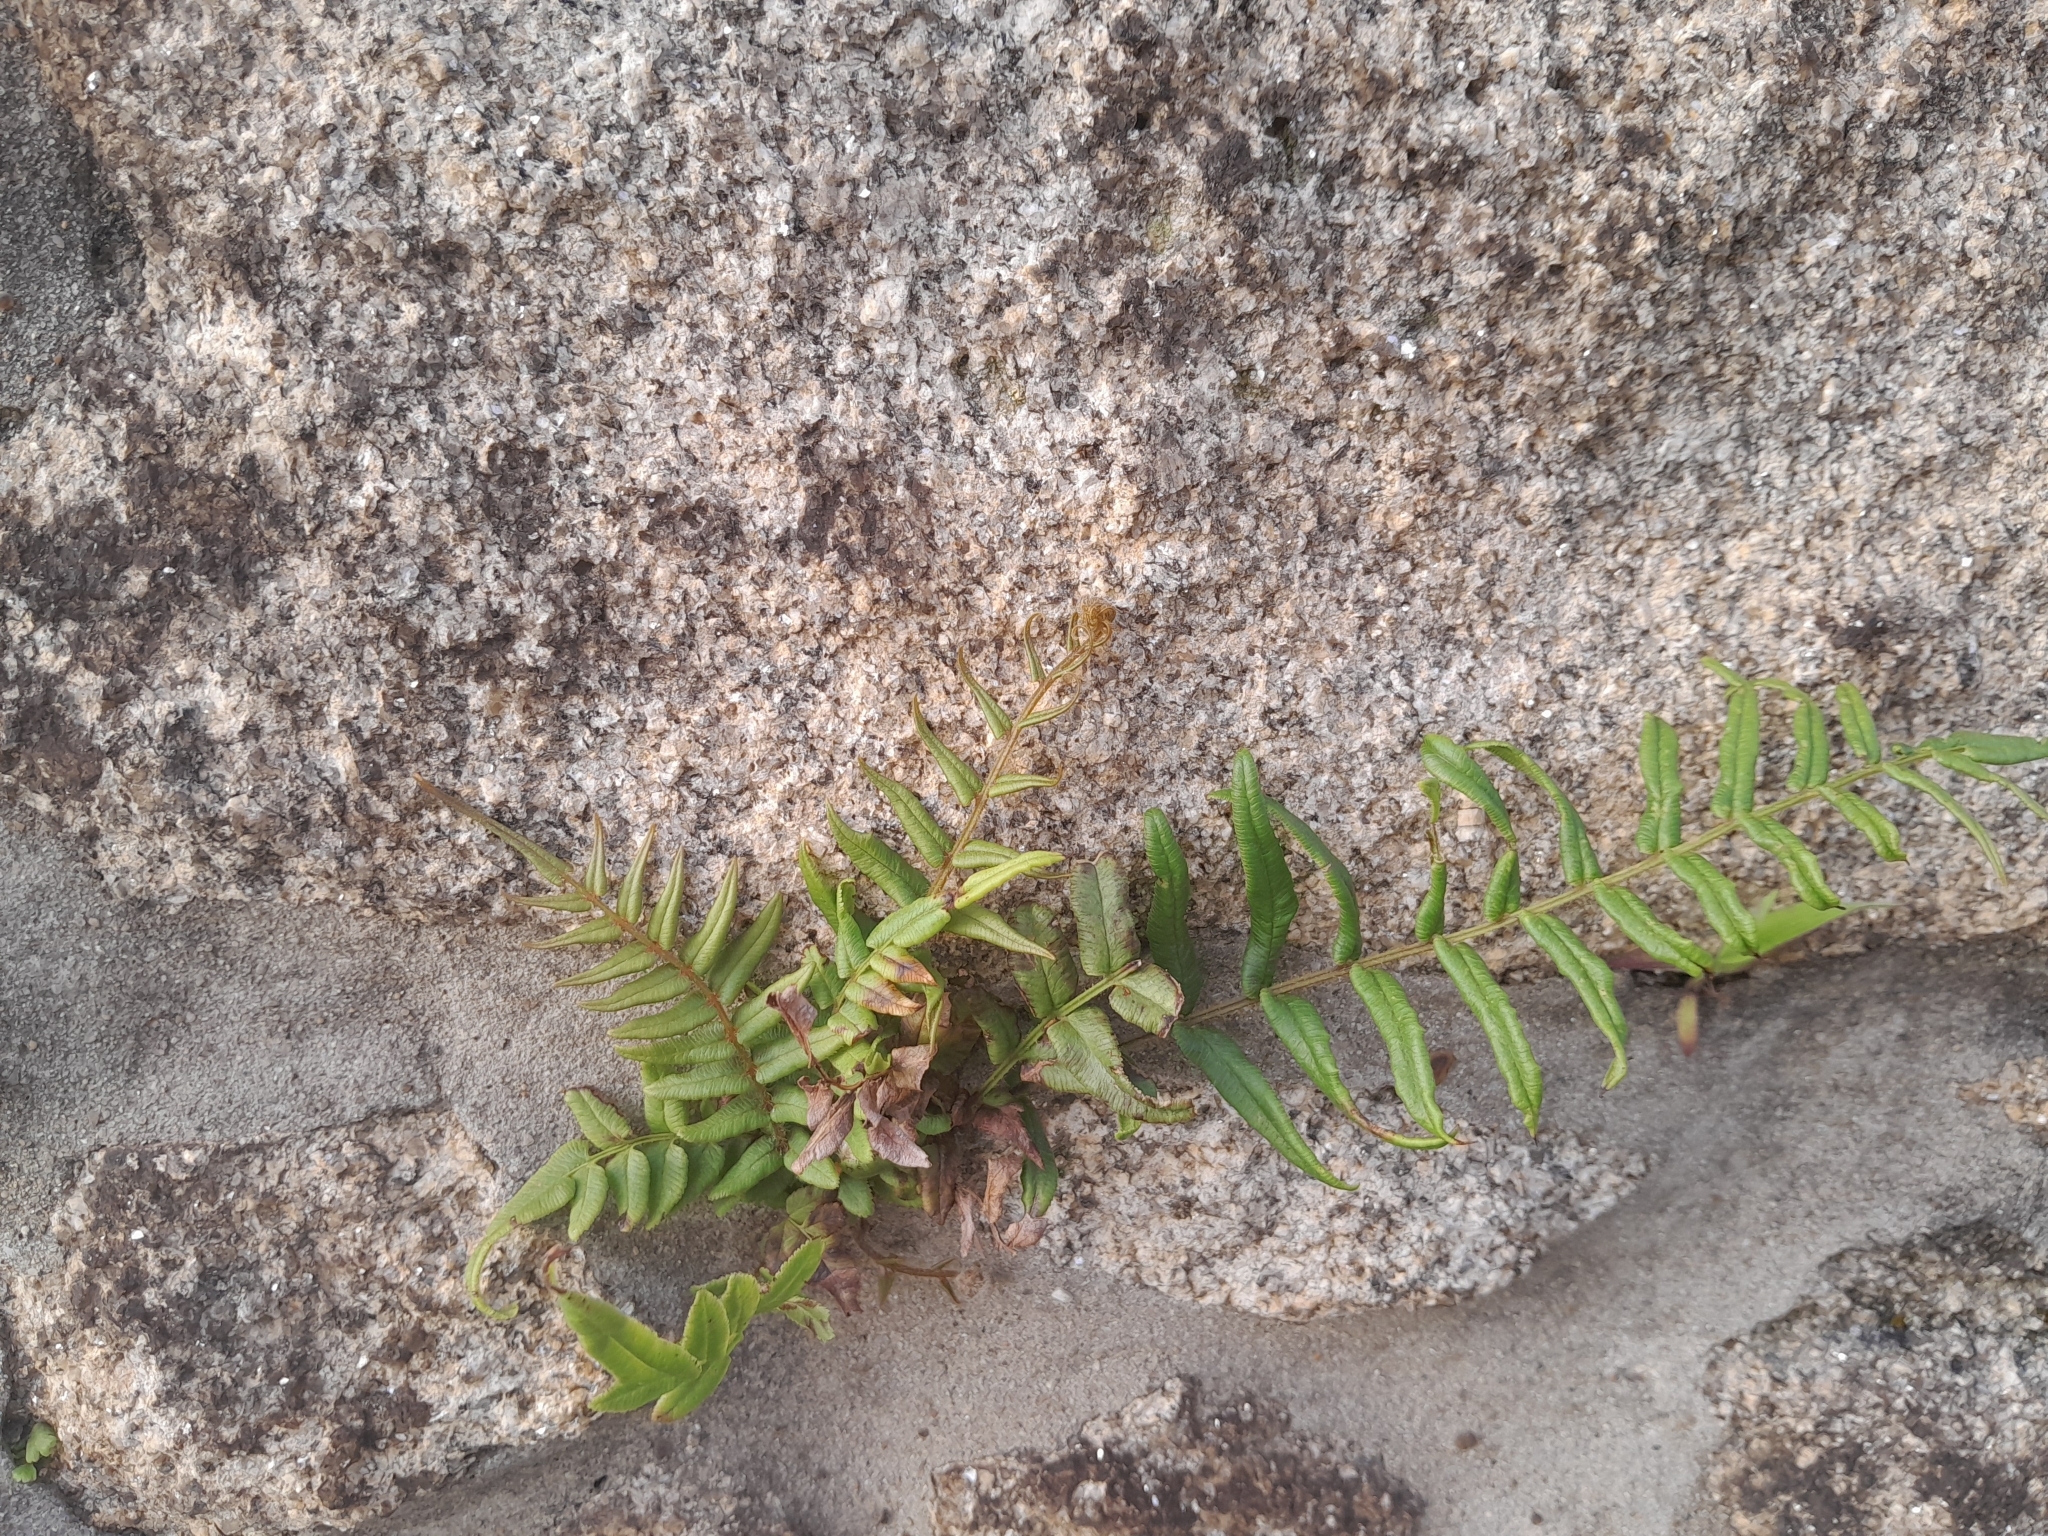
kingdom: Plantae
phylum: Tracheophyta
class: Polypodiopsida
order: Polypodiales
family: Pteridaceae
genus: Pteris
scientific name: Pteris vittata
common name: Ladder brake
